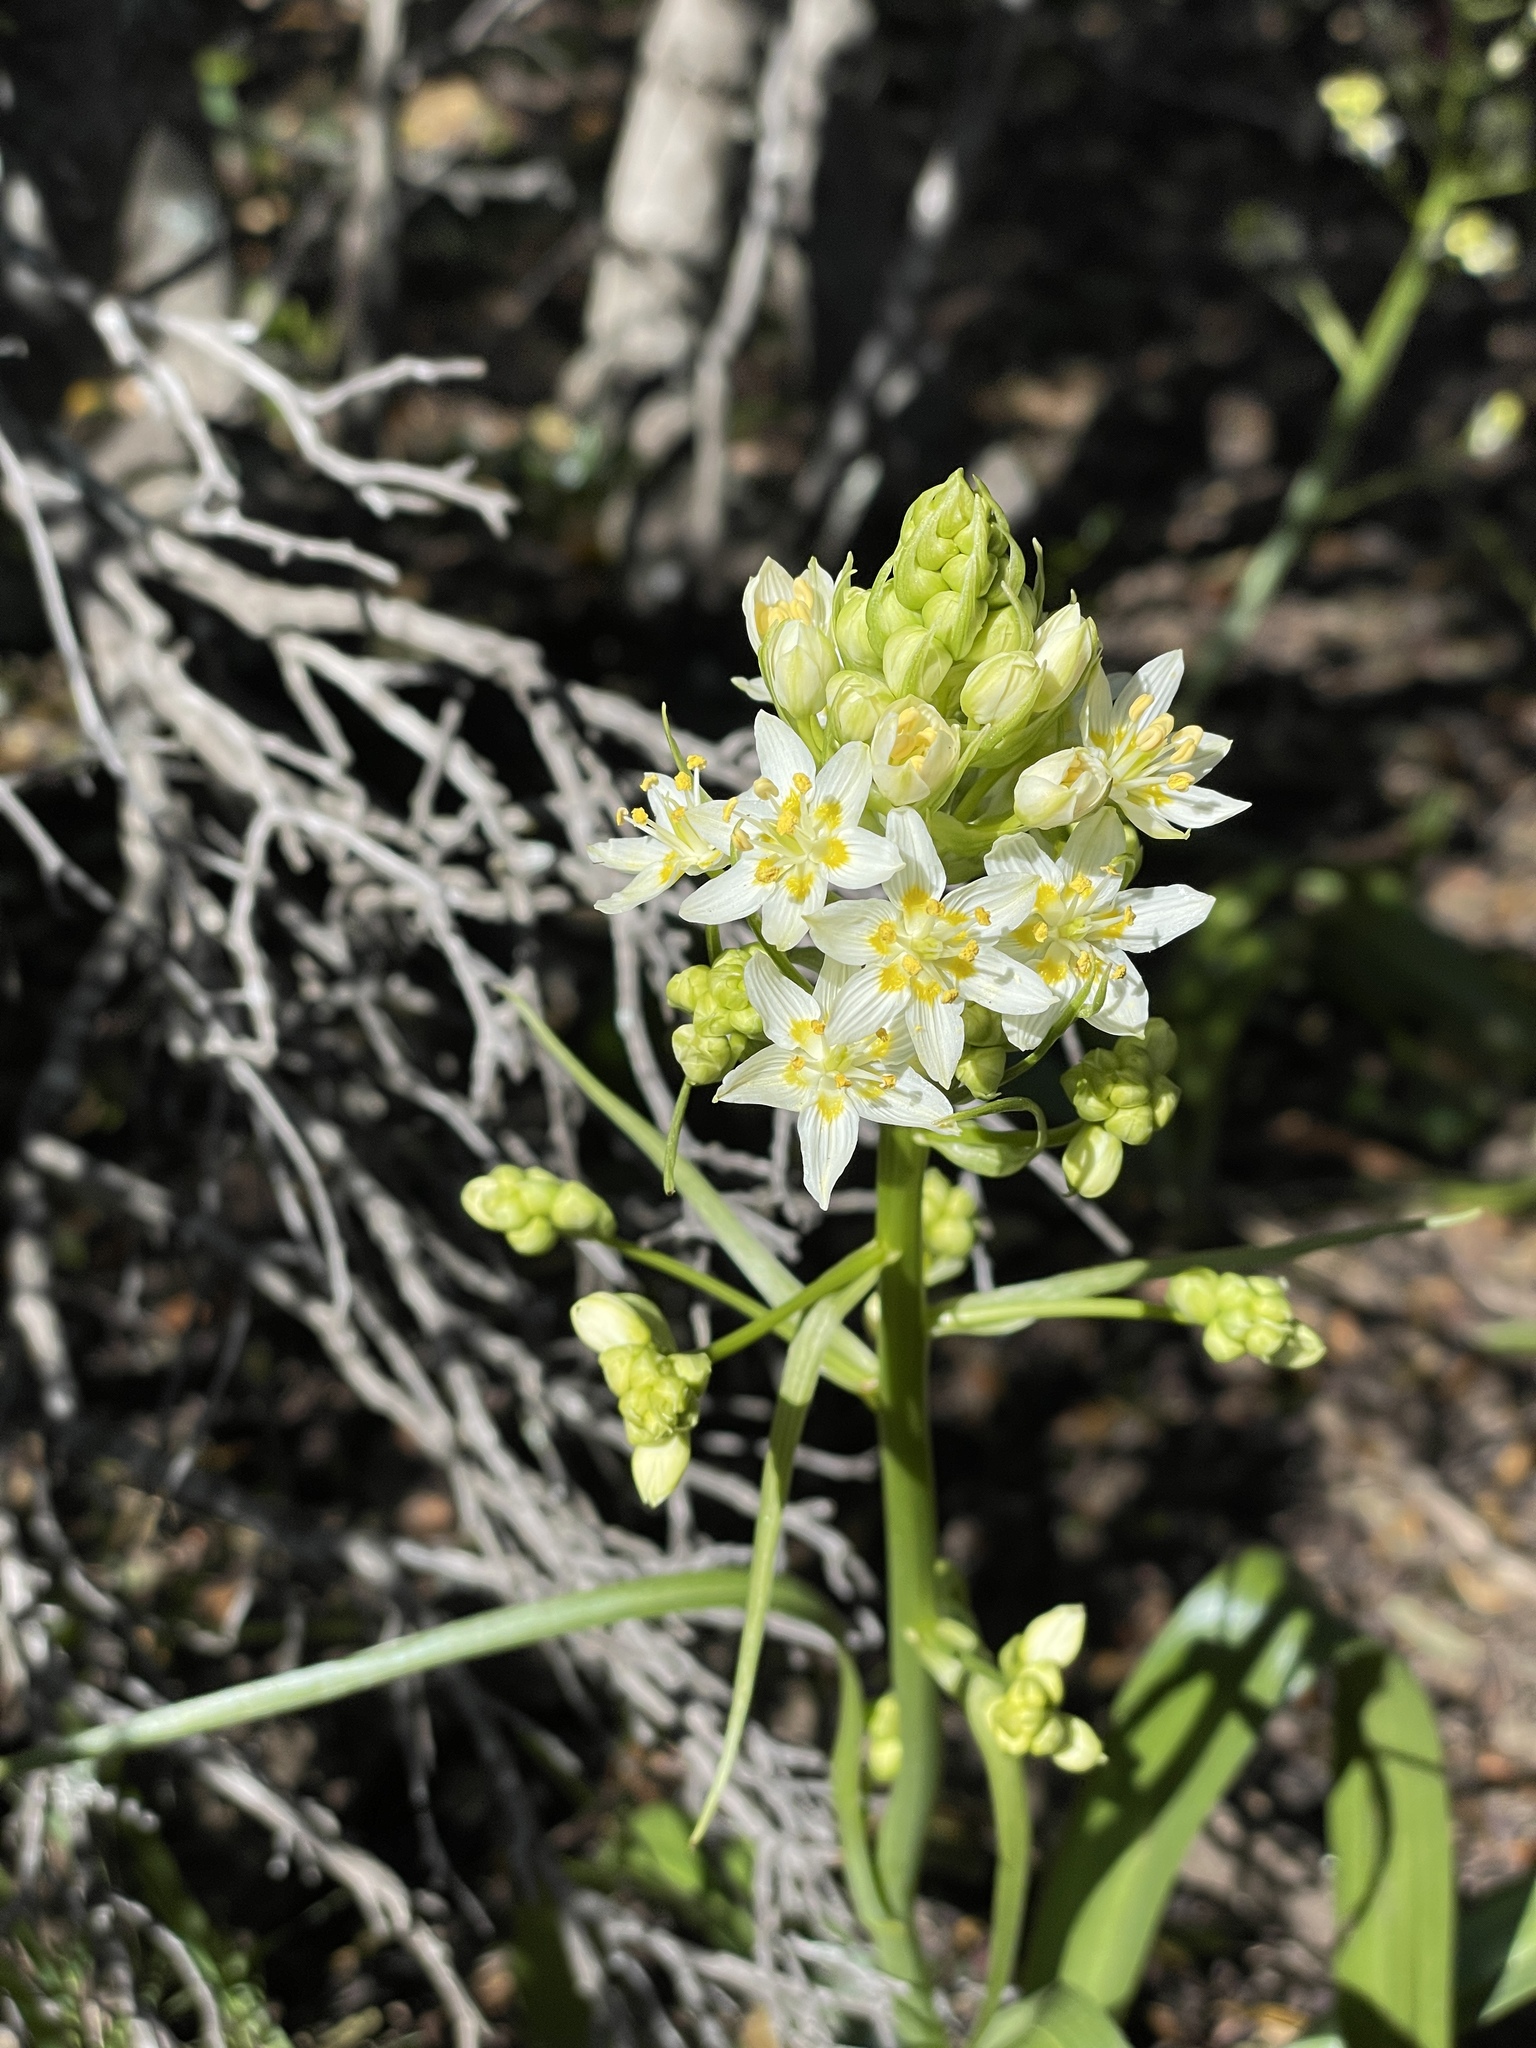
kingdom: Plantae
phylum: Tracheophyta
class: Liliopsida
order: Liliales
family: Melanthiaceae
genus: Toxicoscordion
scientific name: Toxicoscordion fremontii
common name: Fremont's death camas
